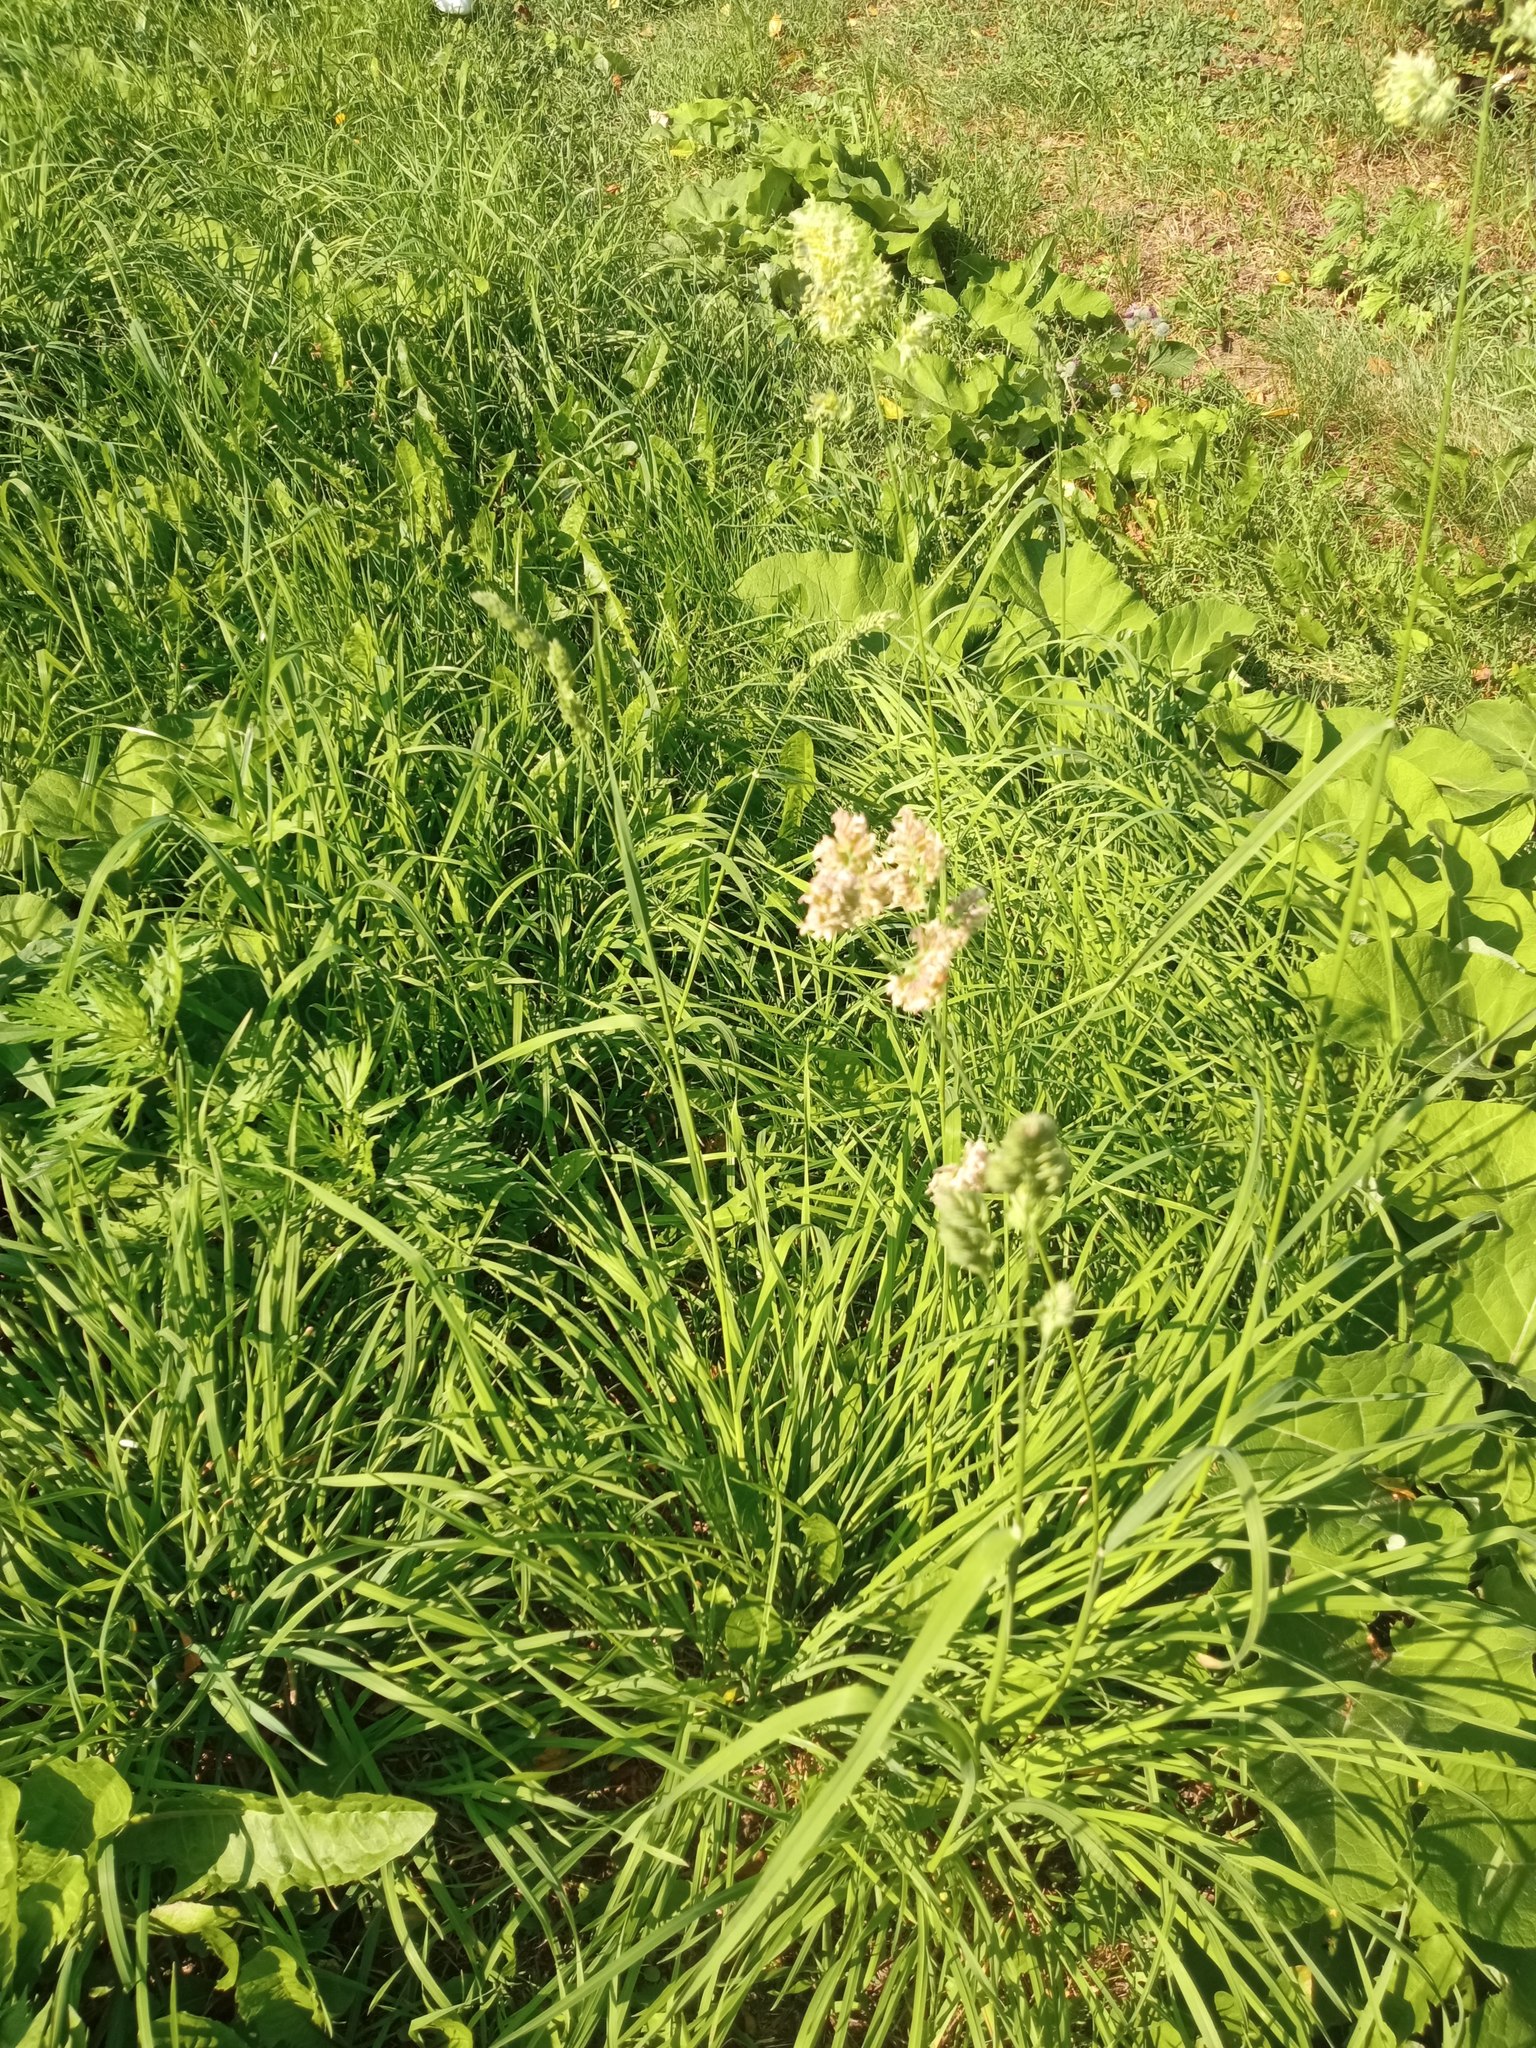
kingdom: Plantae
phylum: Tracheophyta
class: Liliopsida
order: Poales
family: Poaceae
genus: Dactylis
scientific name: Dactylis glomerata
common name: Orchardgrass
